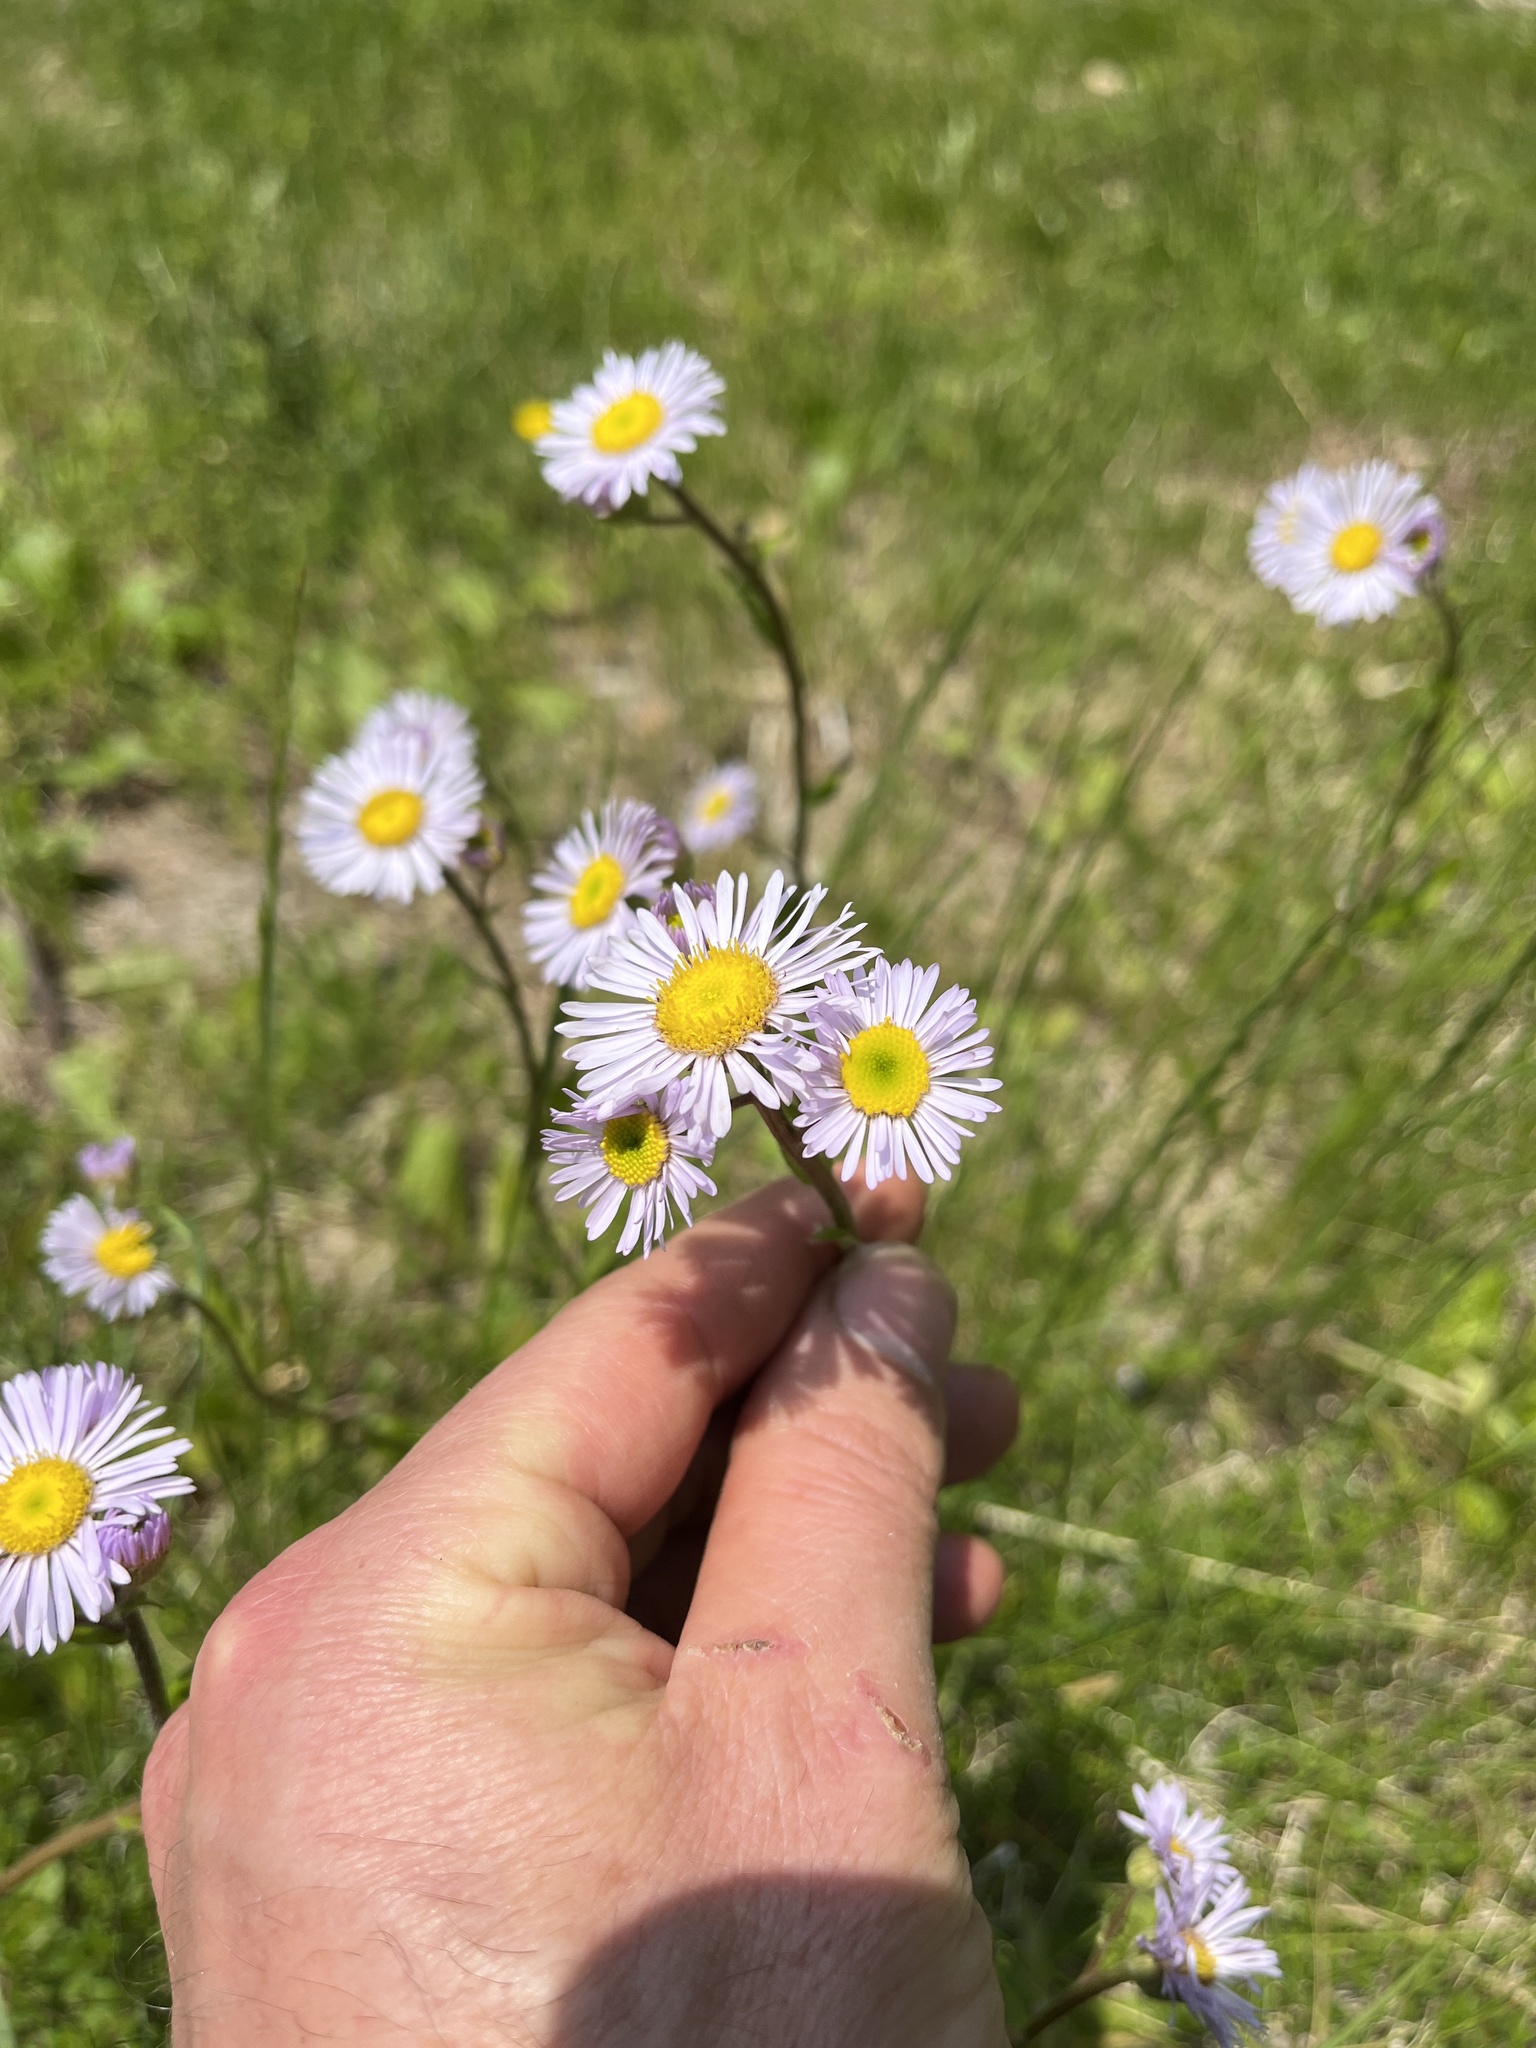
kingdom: Plantae
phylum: Tracheophyta
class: Magnoliopsida
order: Asterales
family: Asteraceae
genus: Erigeron
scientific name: Erigeron pulchellus
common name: Hairy fleabane
